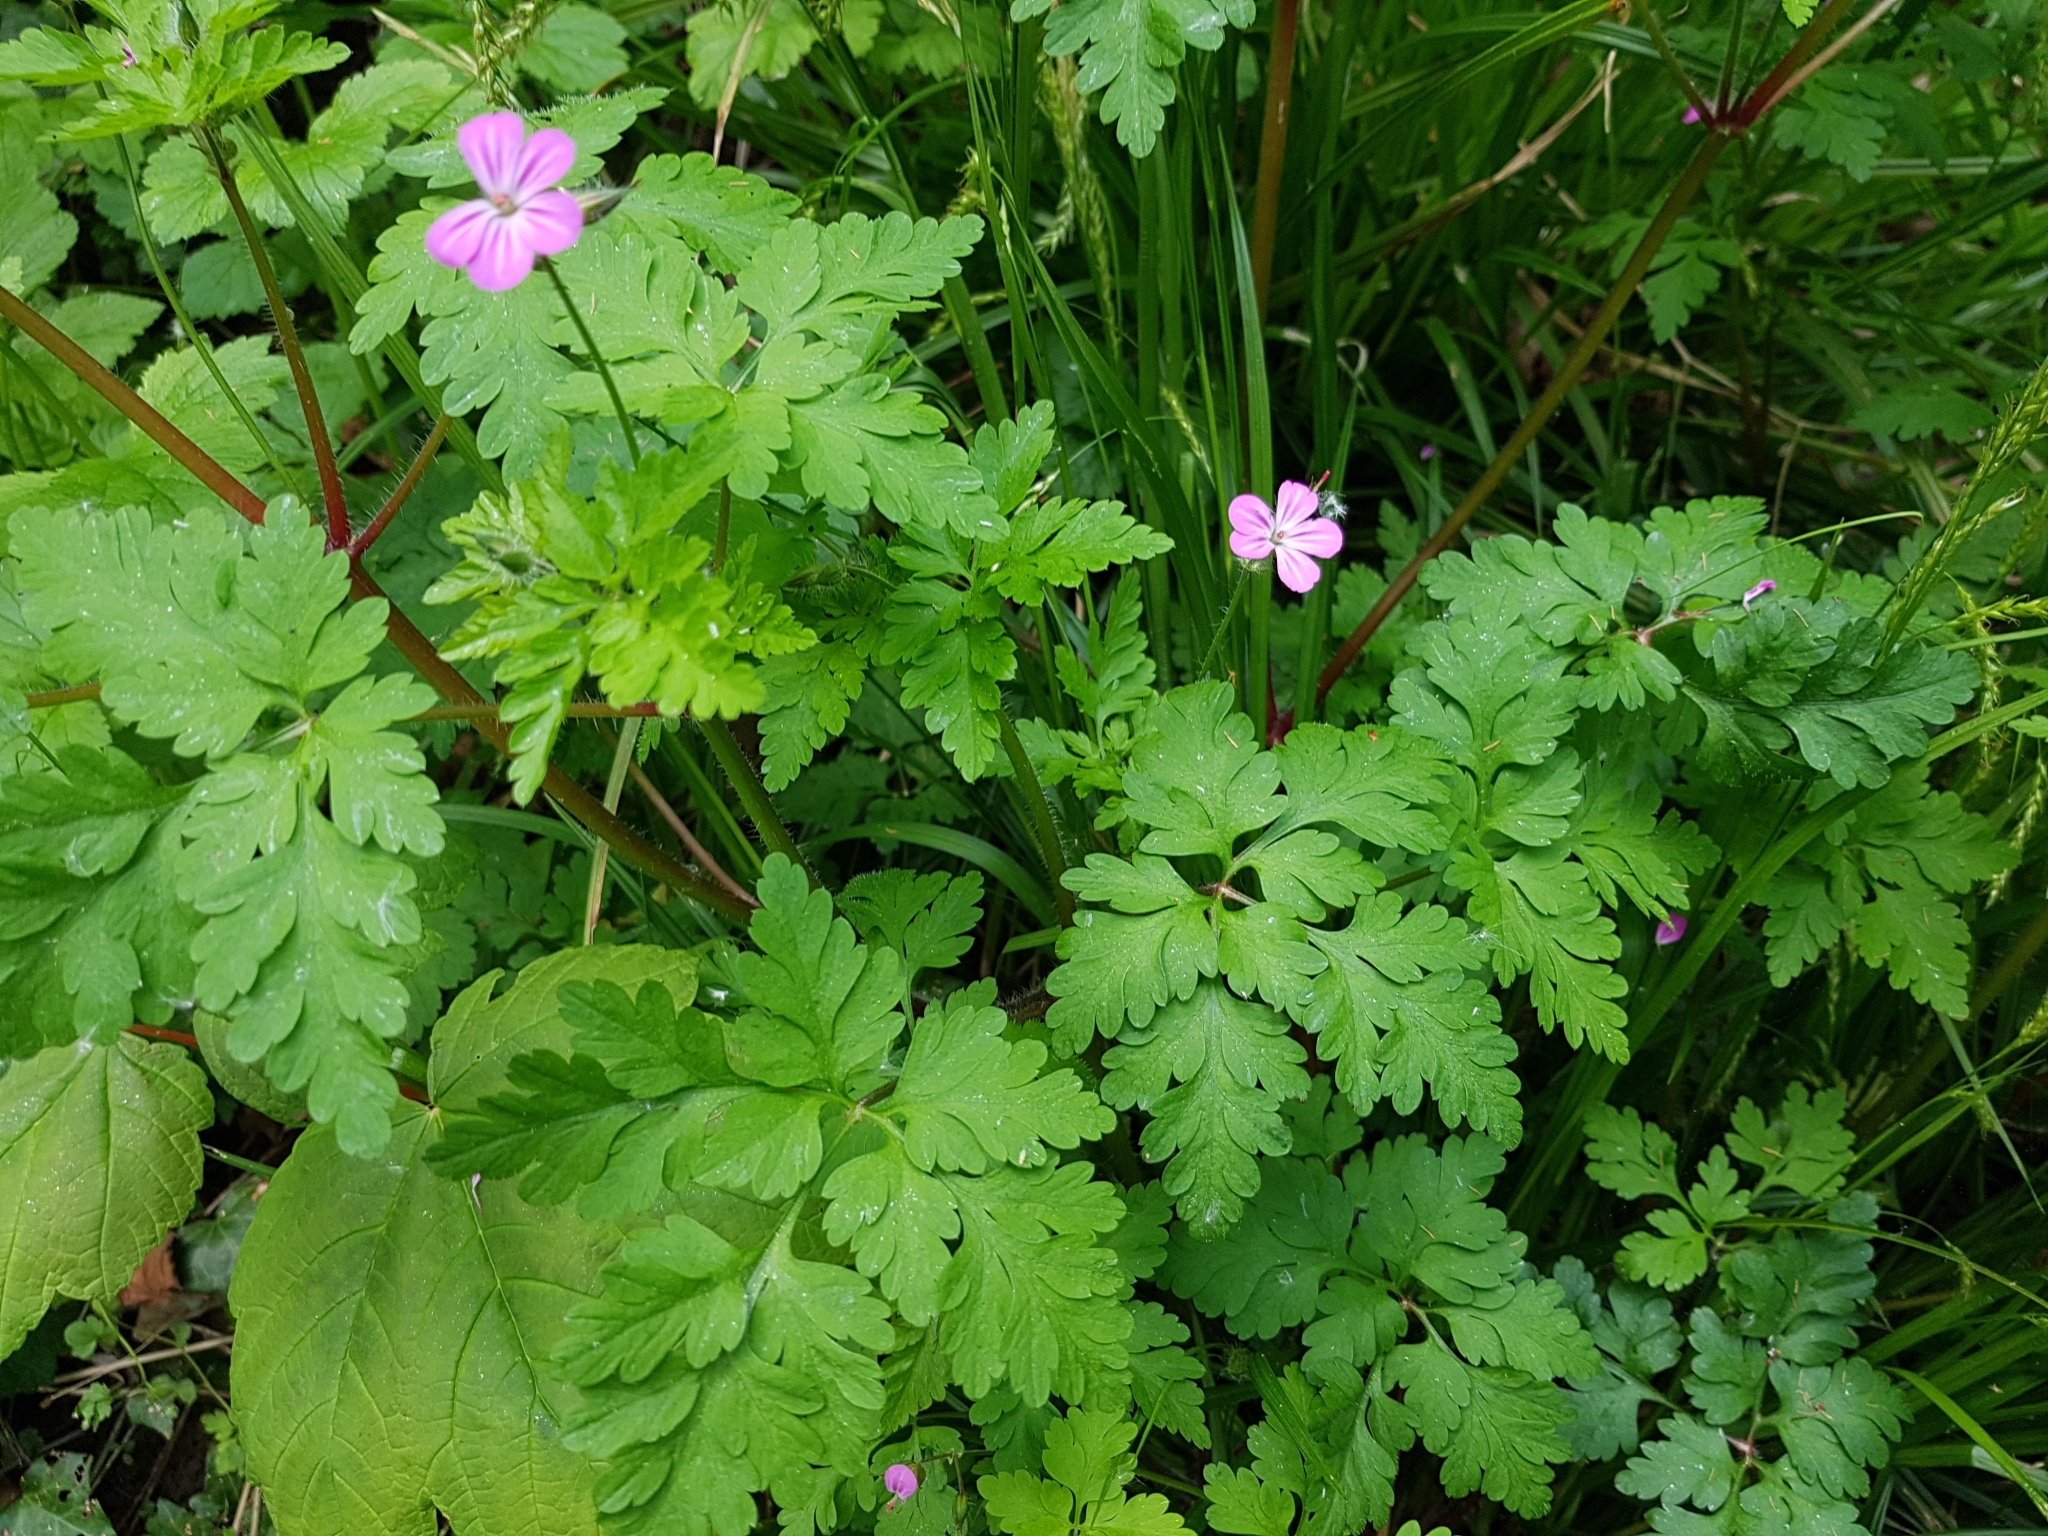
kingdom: Plantae
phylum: Tracheophyta
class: Magnoliopsida
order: Geraniales
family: Geraniaceae
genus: Geranium
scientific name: Geranium robertianum
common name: Herb-robert
